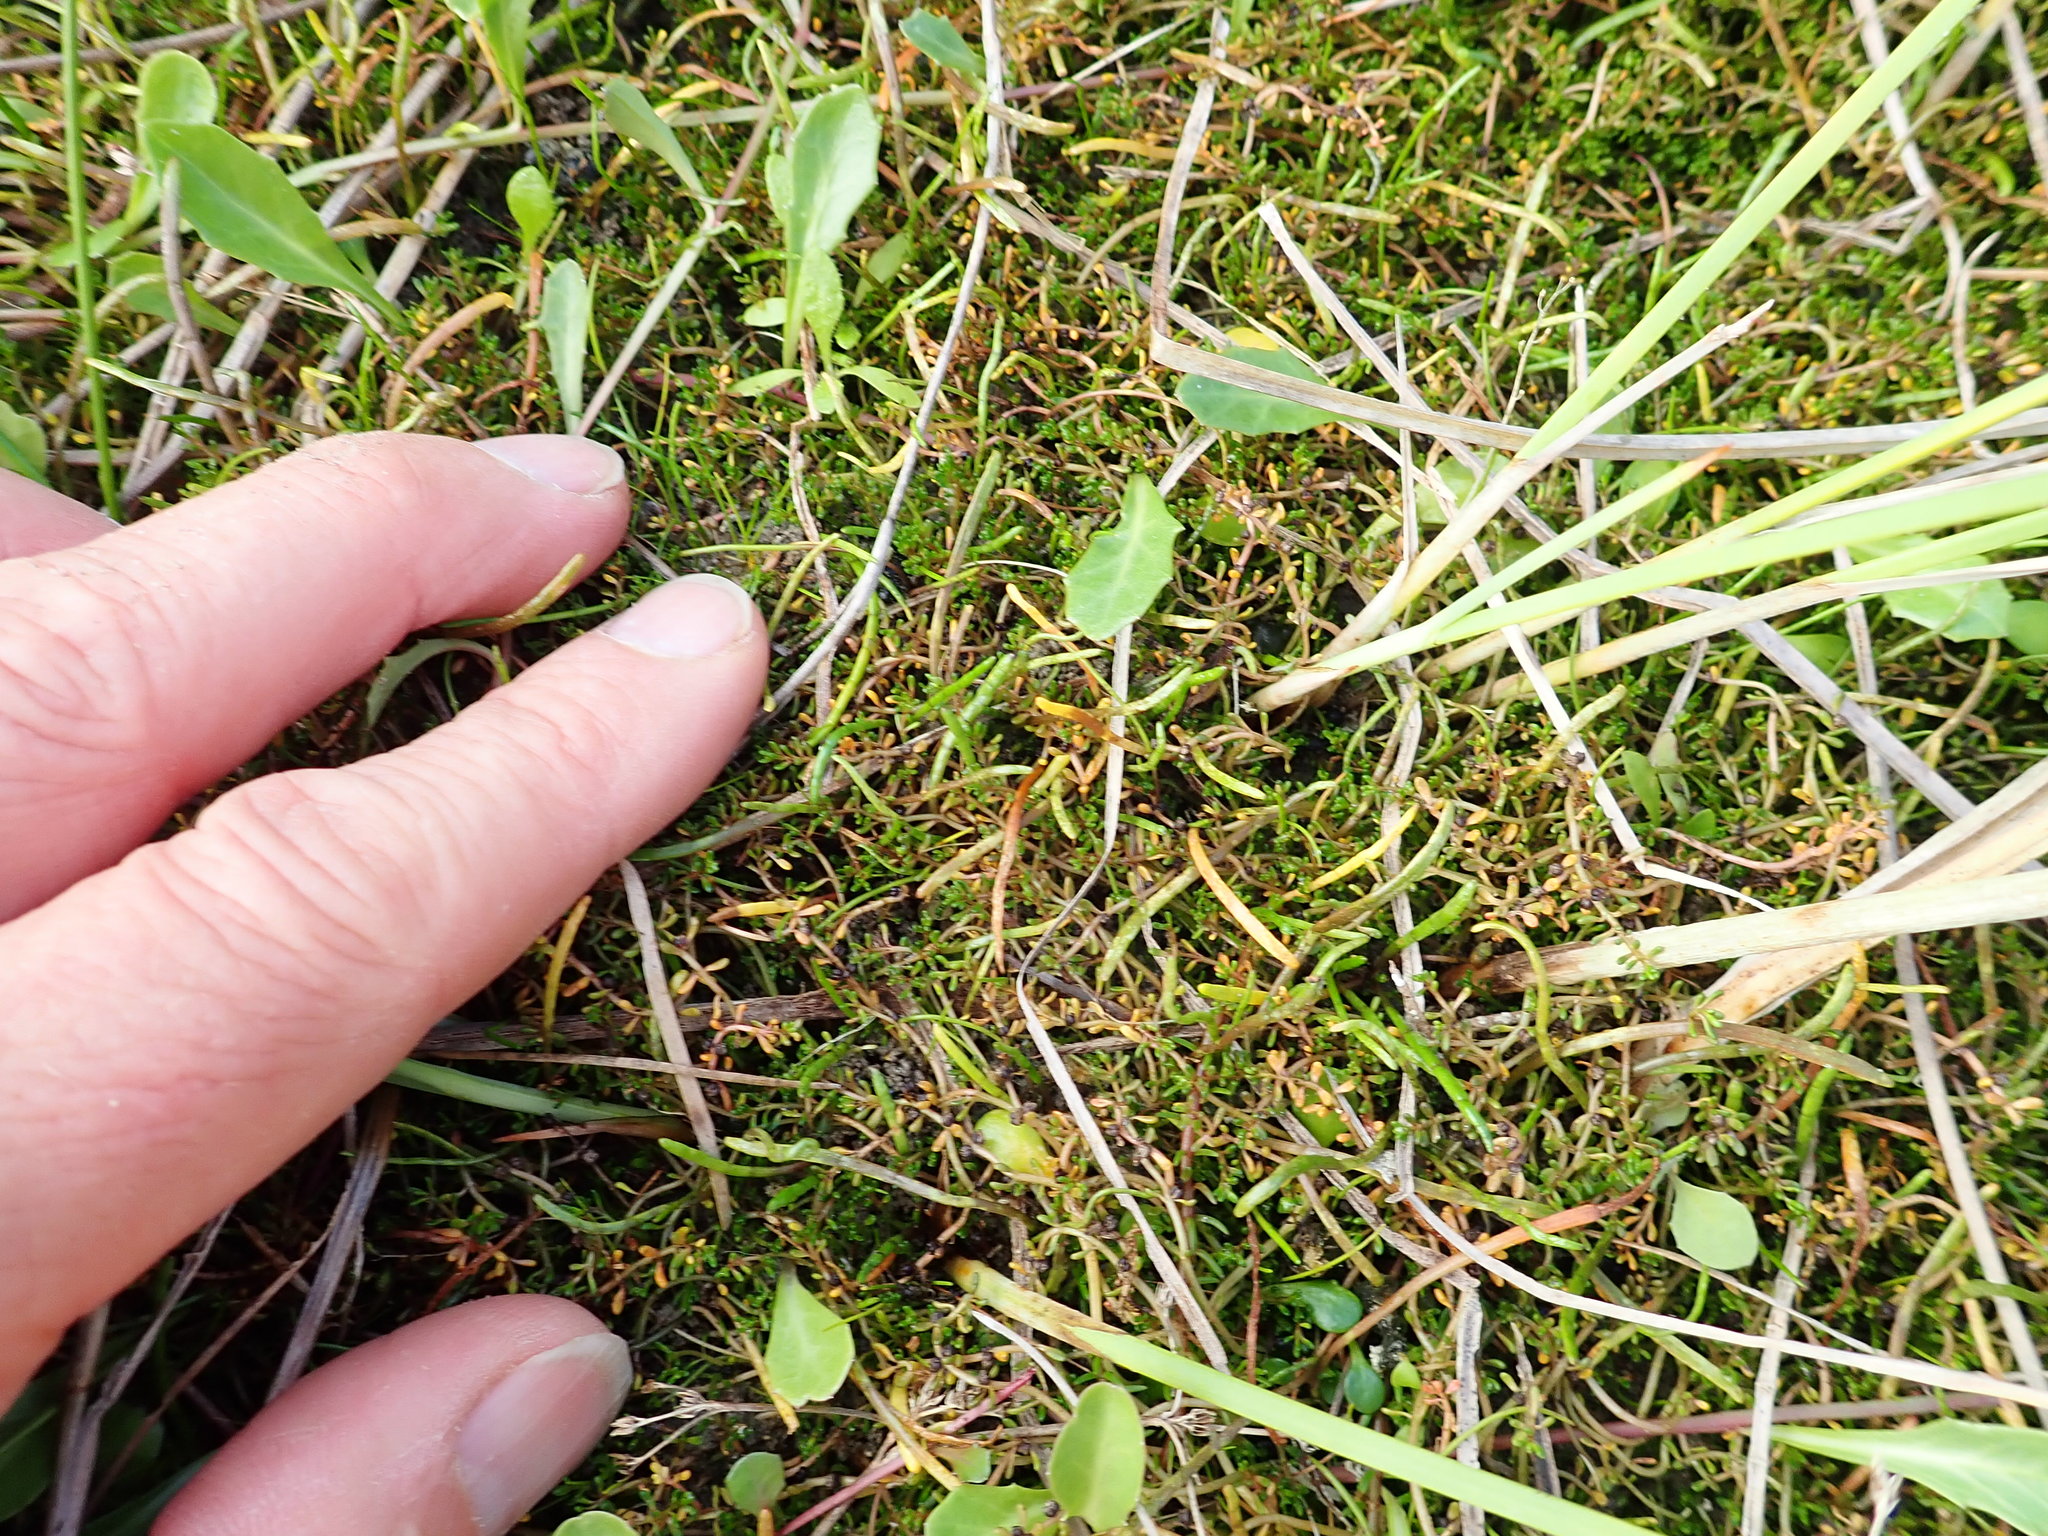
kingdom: Plantae
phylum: Tracheophyta
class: Magnoliopsida
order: Saxifragales
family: Haloragaceae
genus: Myriophyllum
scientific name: Myriophyllum votschii
